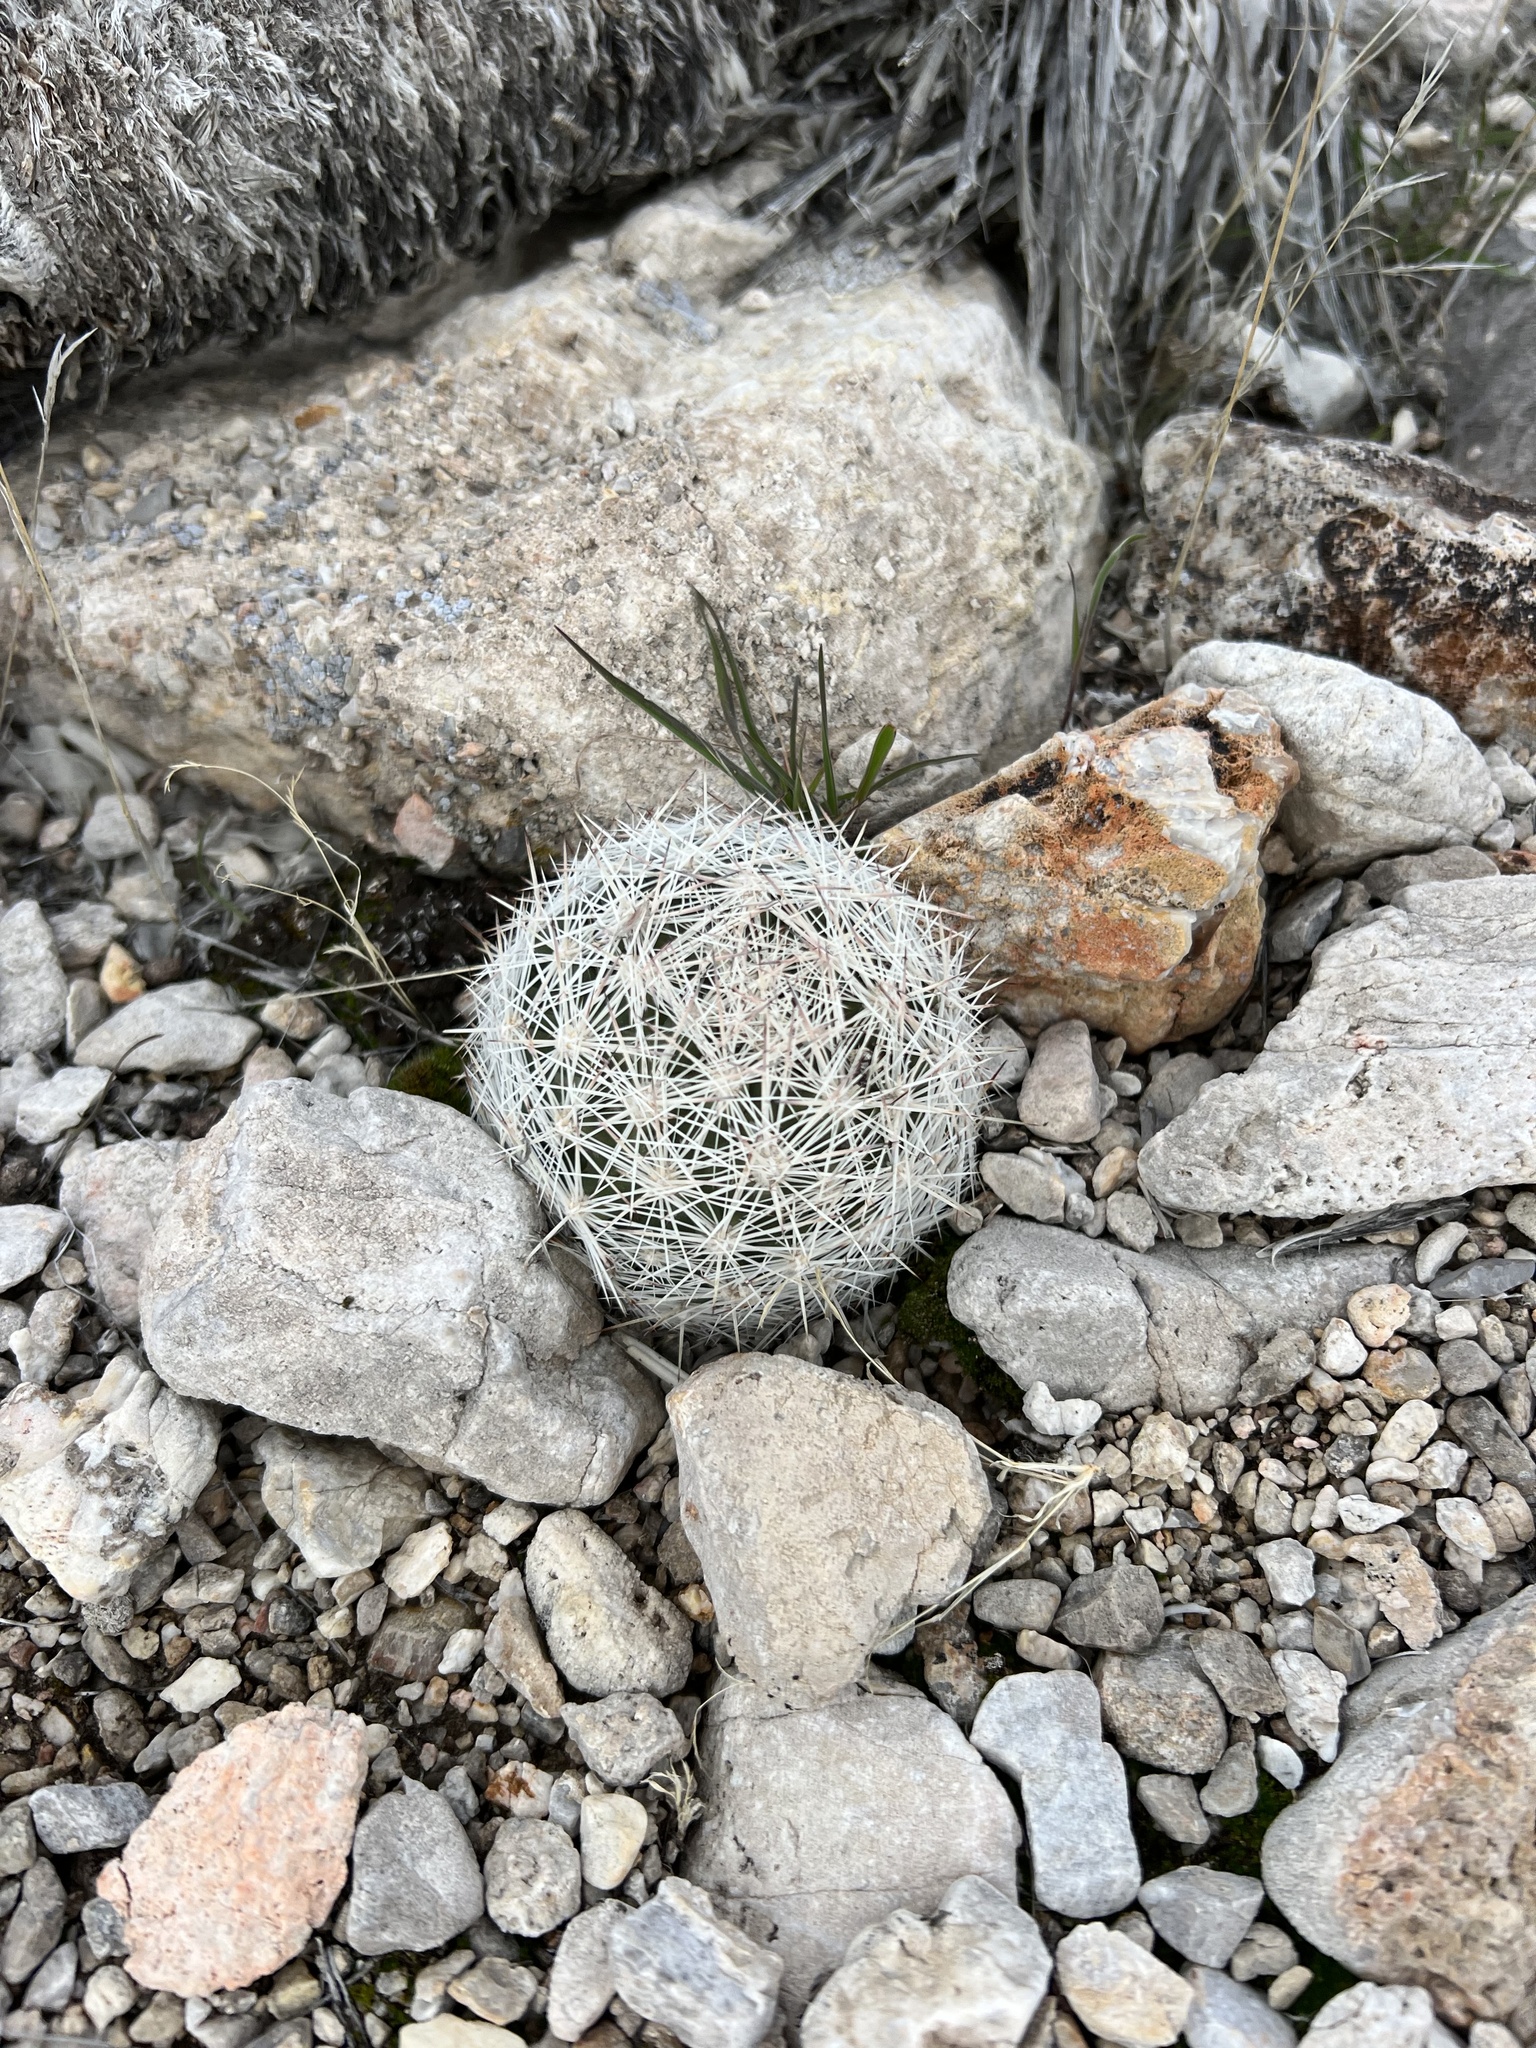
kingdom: Plantae
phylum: Tracheophyta
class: Magnoliopsida
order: Caryophyllales
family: Cactaceae
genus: Pelecyphora
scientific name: Pelecyphora dasyacantha
